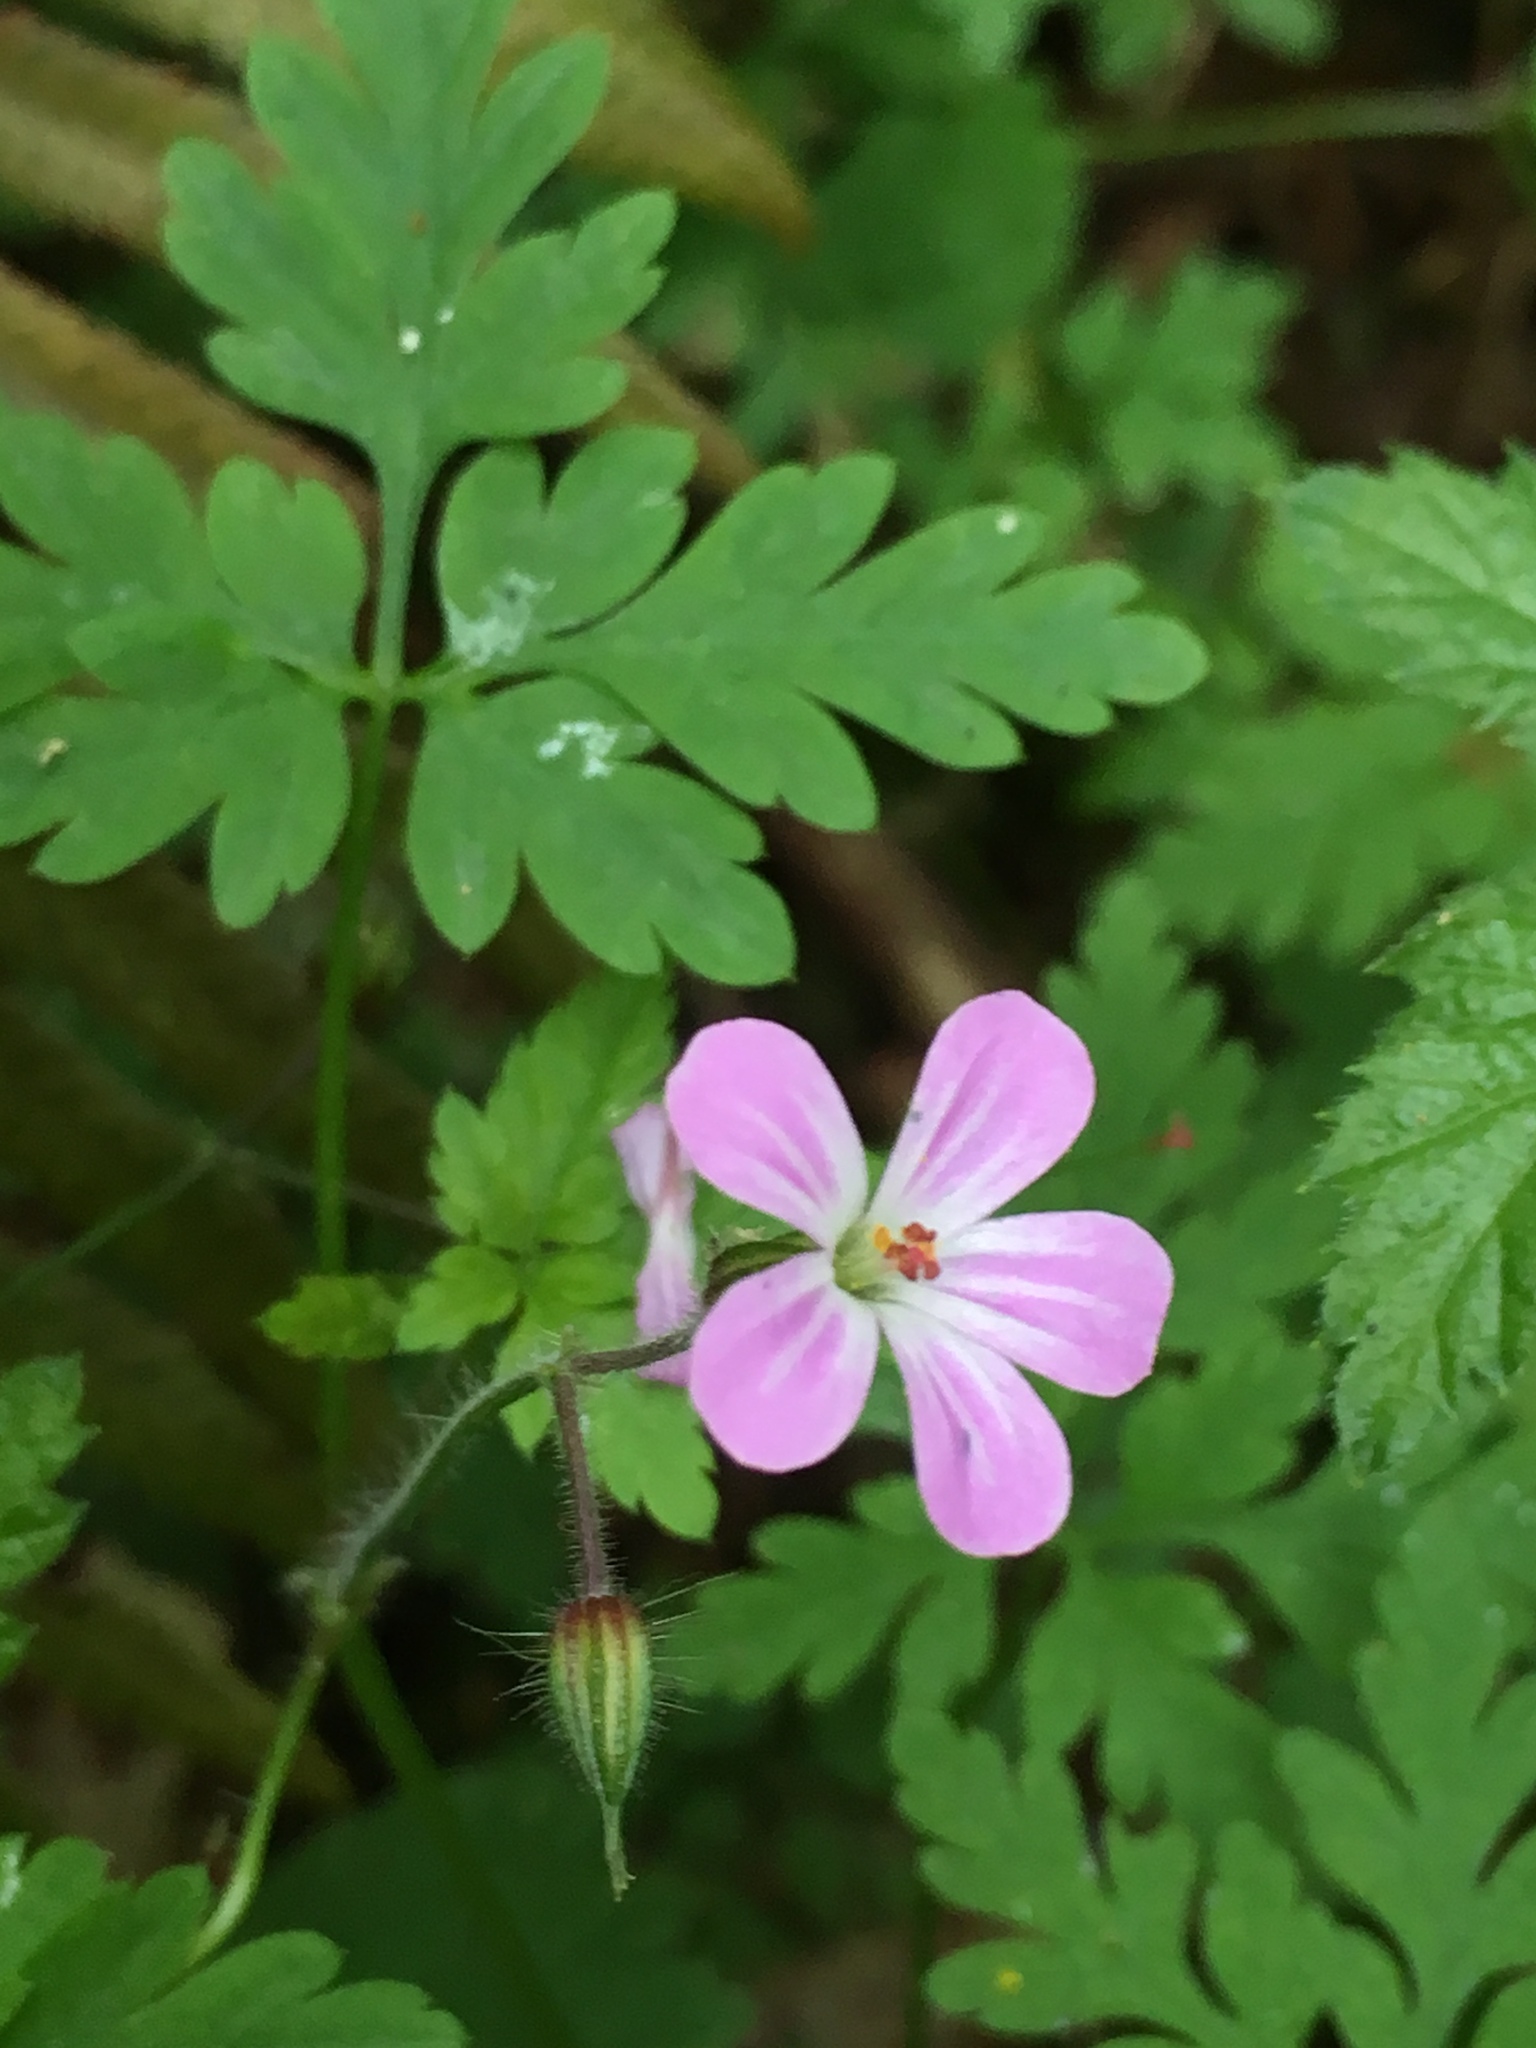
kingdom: Plantae
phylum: Tracheophyta
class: Magnoliopsida
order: Geraniales
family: Geraniaceae
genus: Geranium
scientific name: Geranium robertianum
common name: Herb-robert
